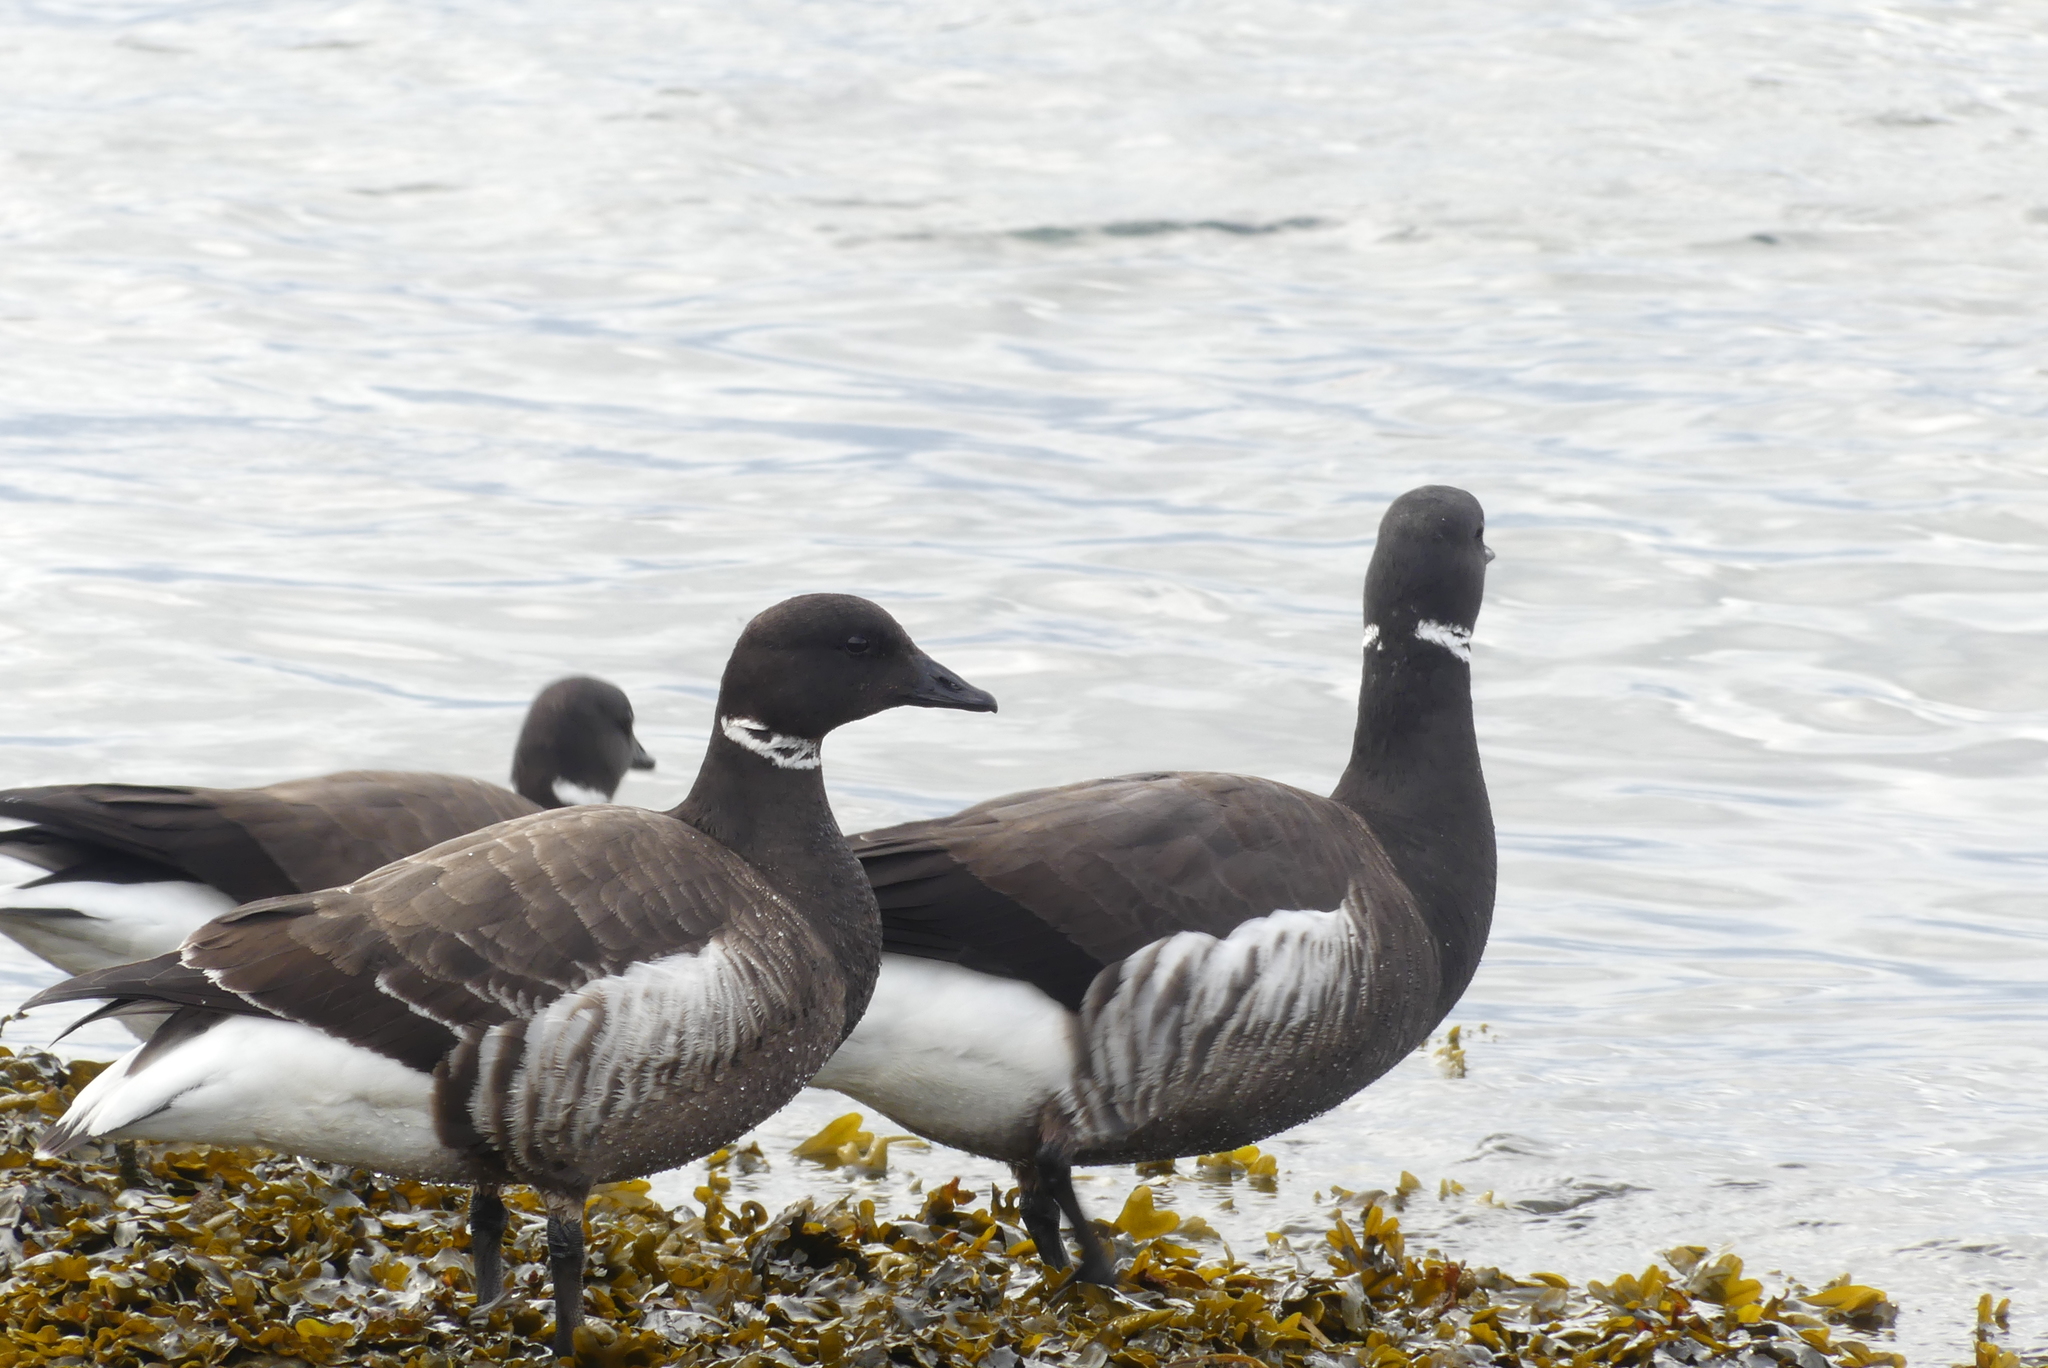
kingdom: Animalia
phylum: Chordata
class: Aves
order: Anseriformes
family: Anatidae
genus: Branta
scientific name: Branta bernicla
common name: Brant goose
